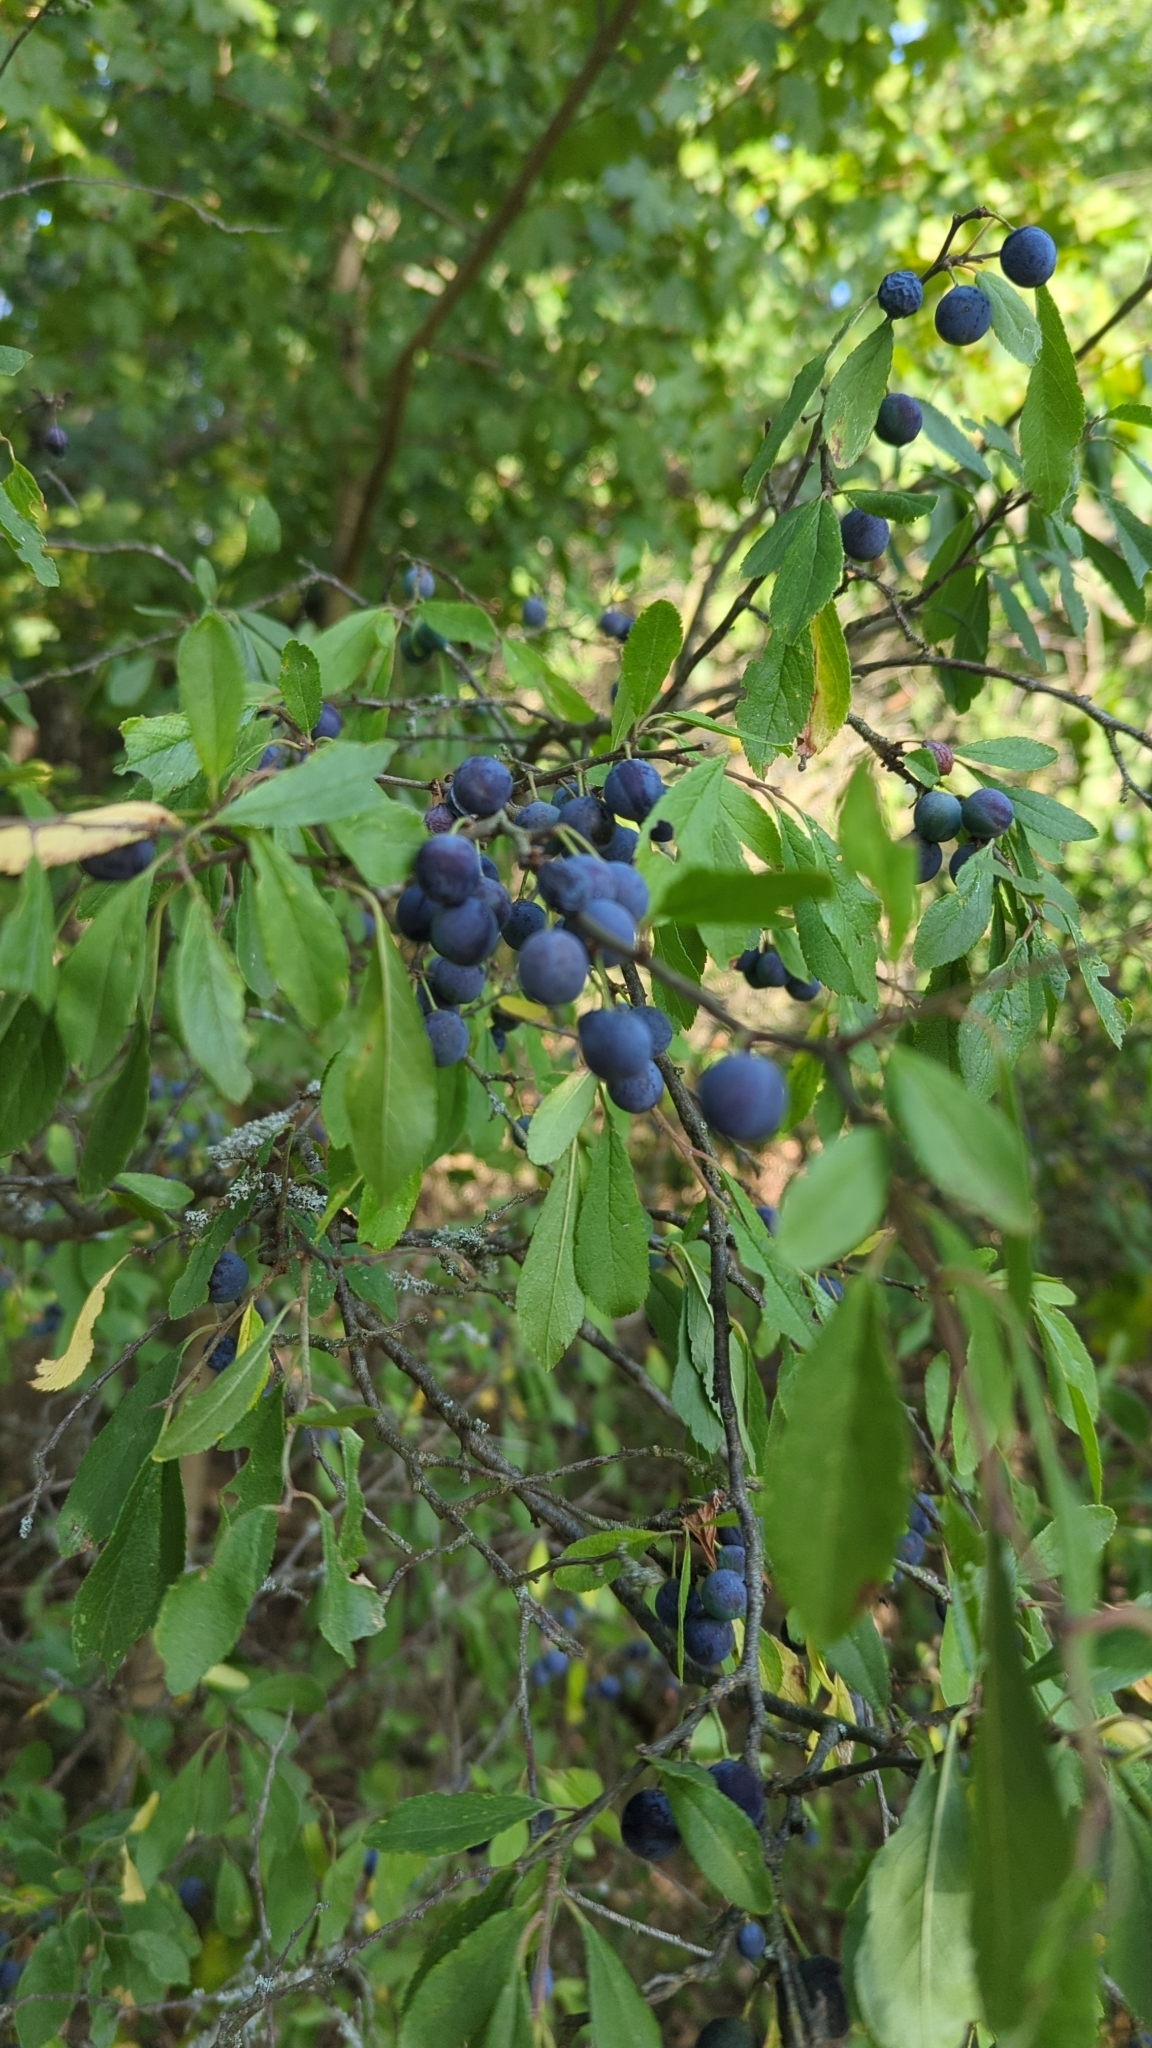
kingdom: Plantae
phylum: Tracheophyta
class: Magnoliopsida
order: Rosales
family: Rosaceae
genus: Prunus
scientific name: Prunus spinosa
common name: Blackthorn
